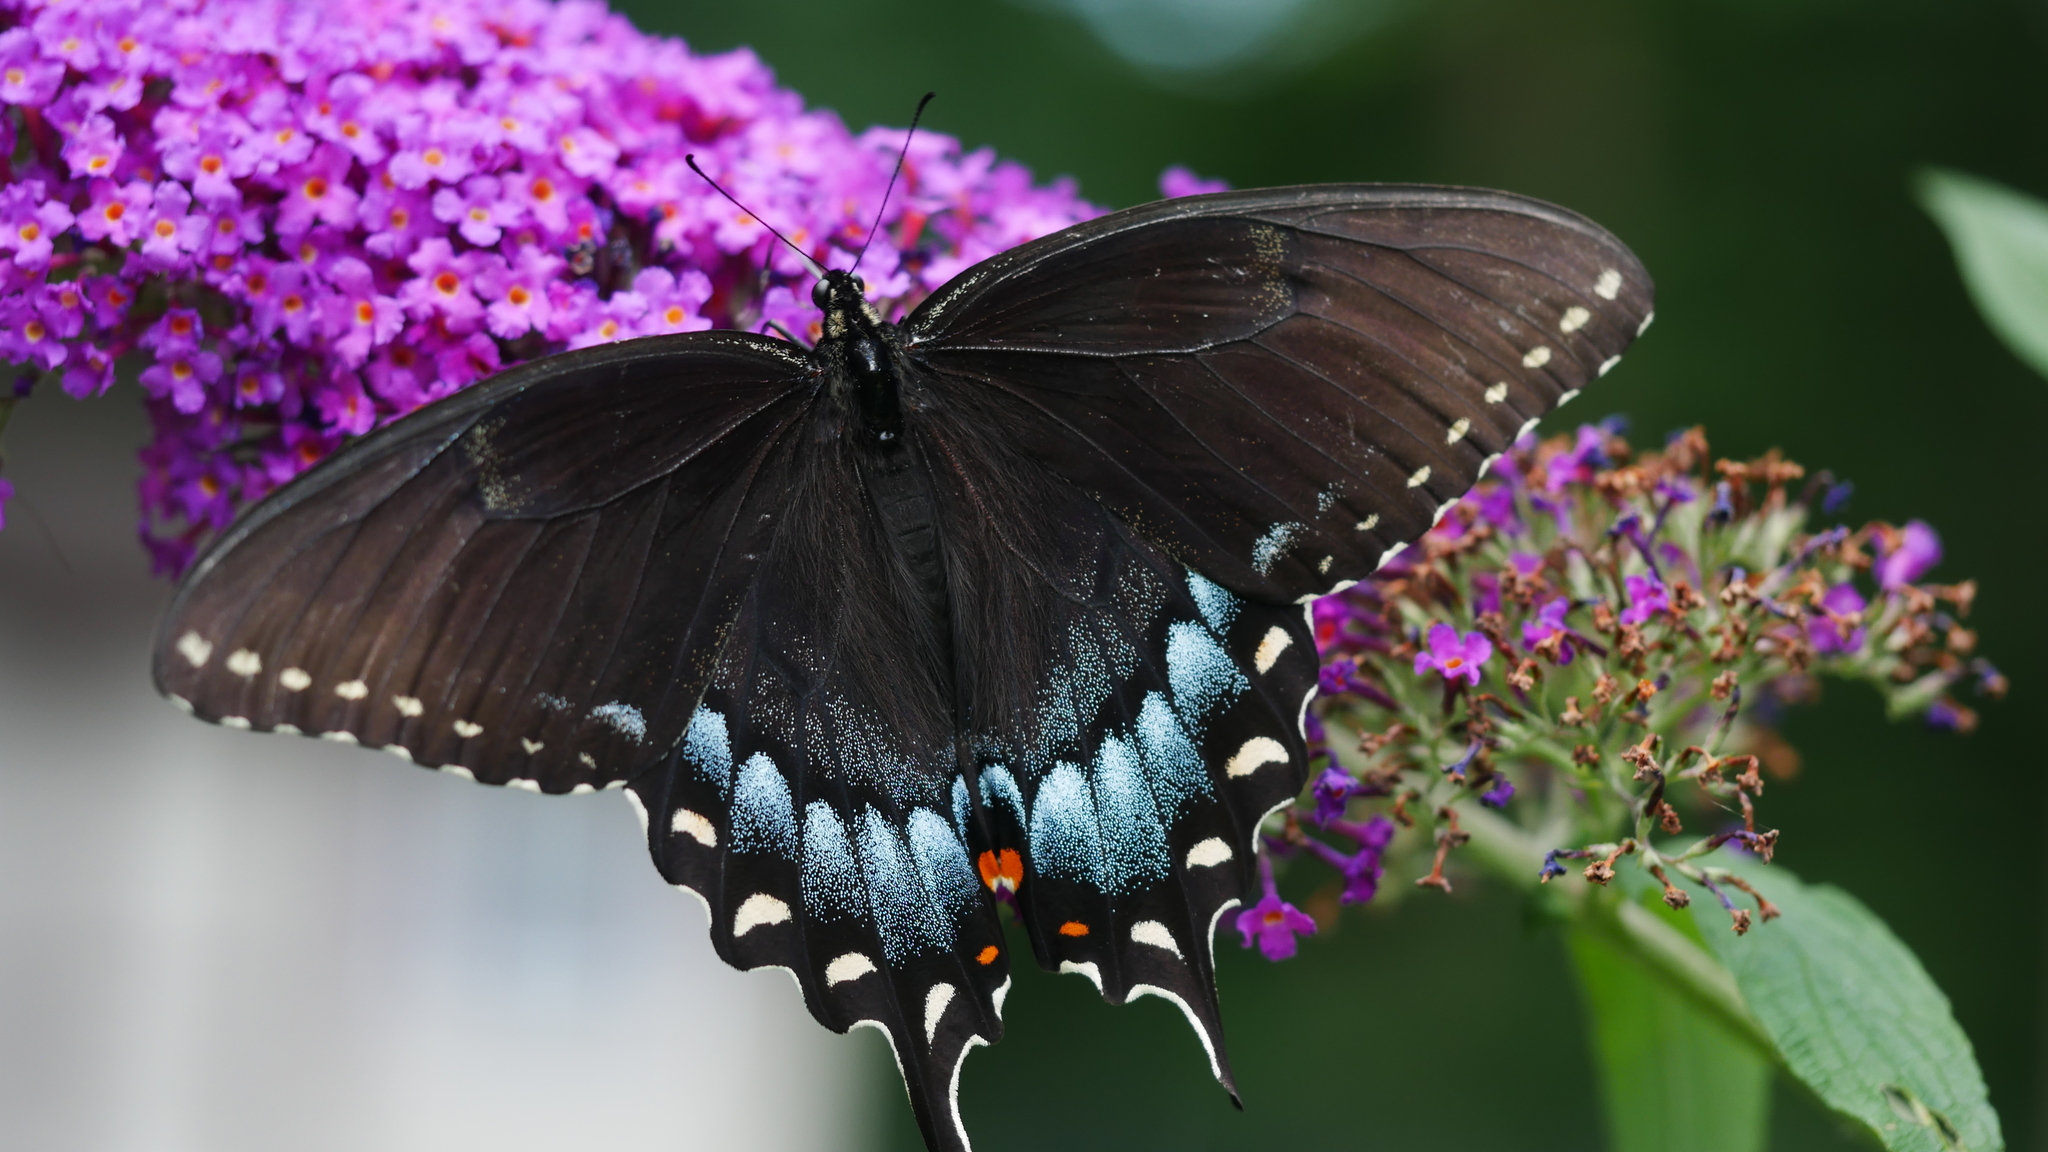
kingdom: Animalia
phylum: Arthropoda
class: Insecta
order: Lepidoptera
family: Papilionidae
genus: Papilio
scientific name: Papilio glaucus
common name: Tiger swallowtail
